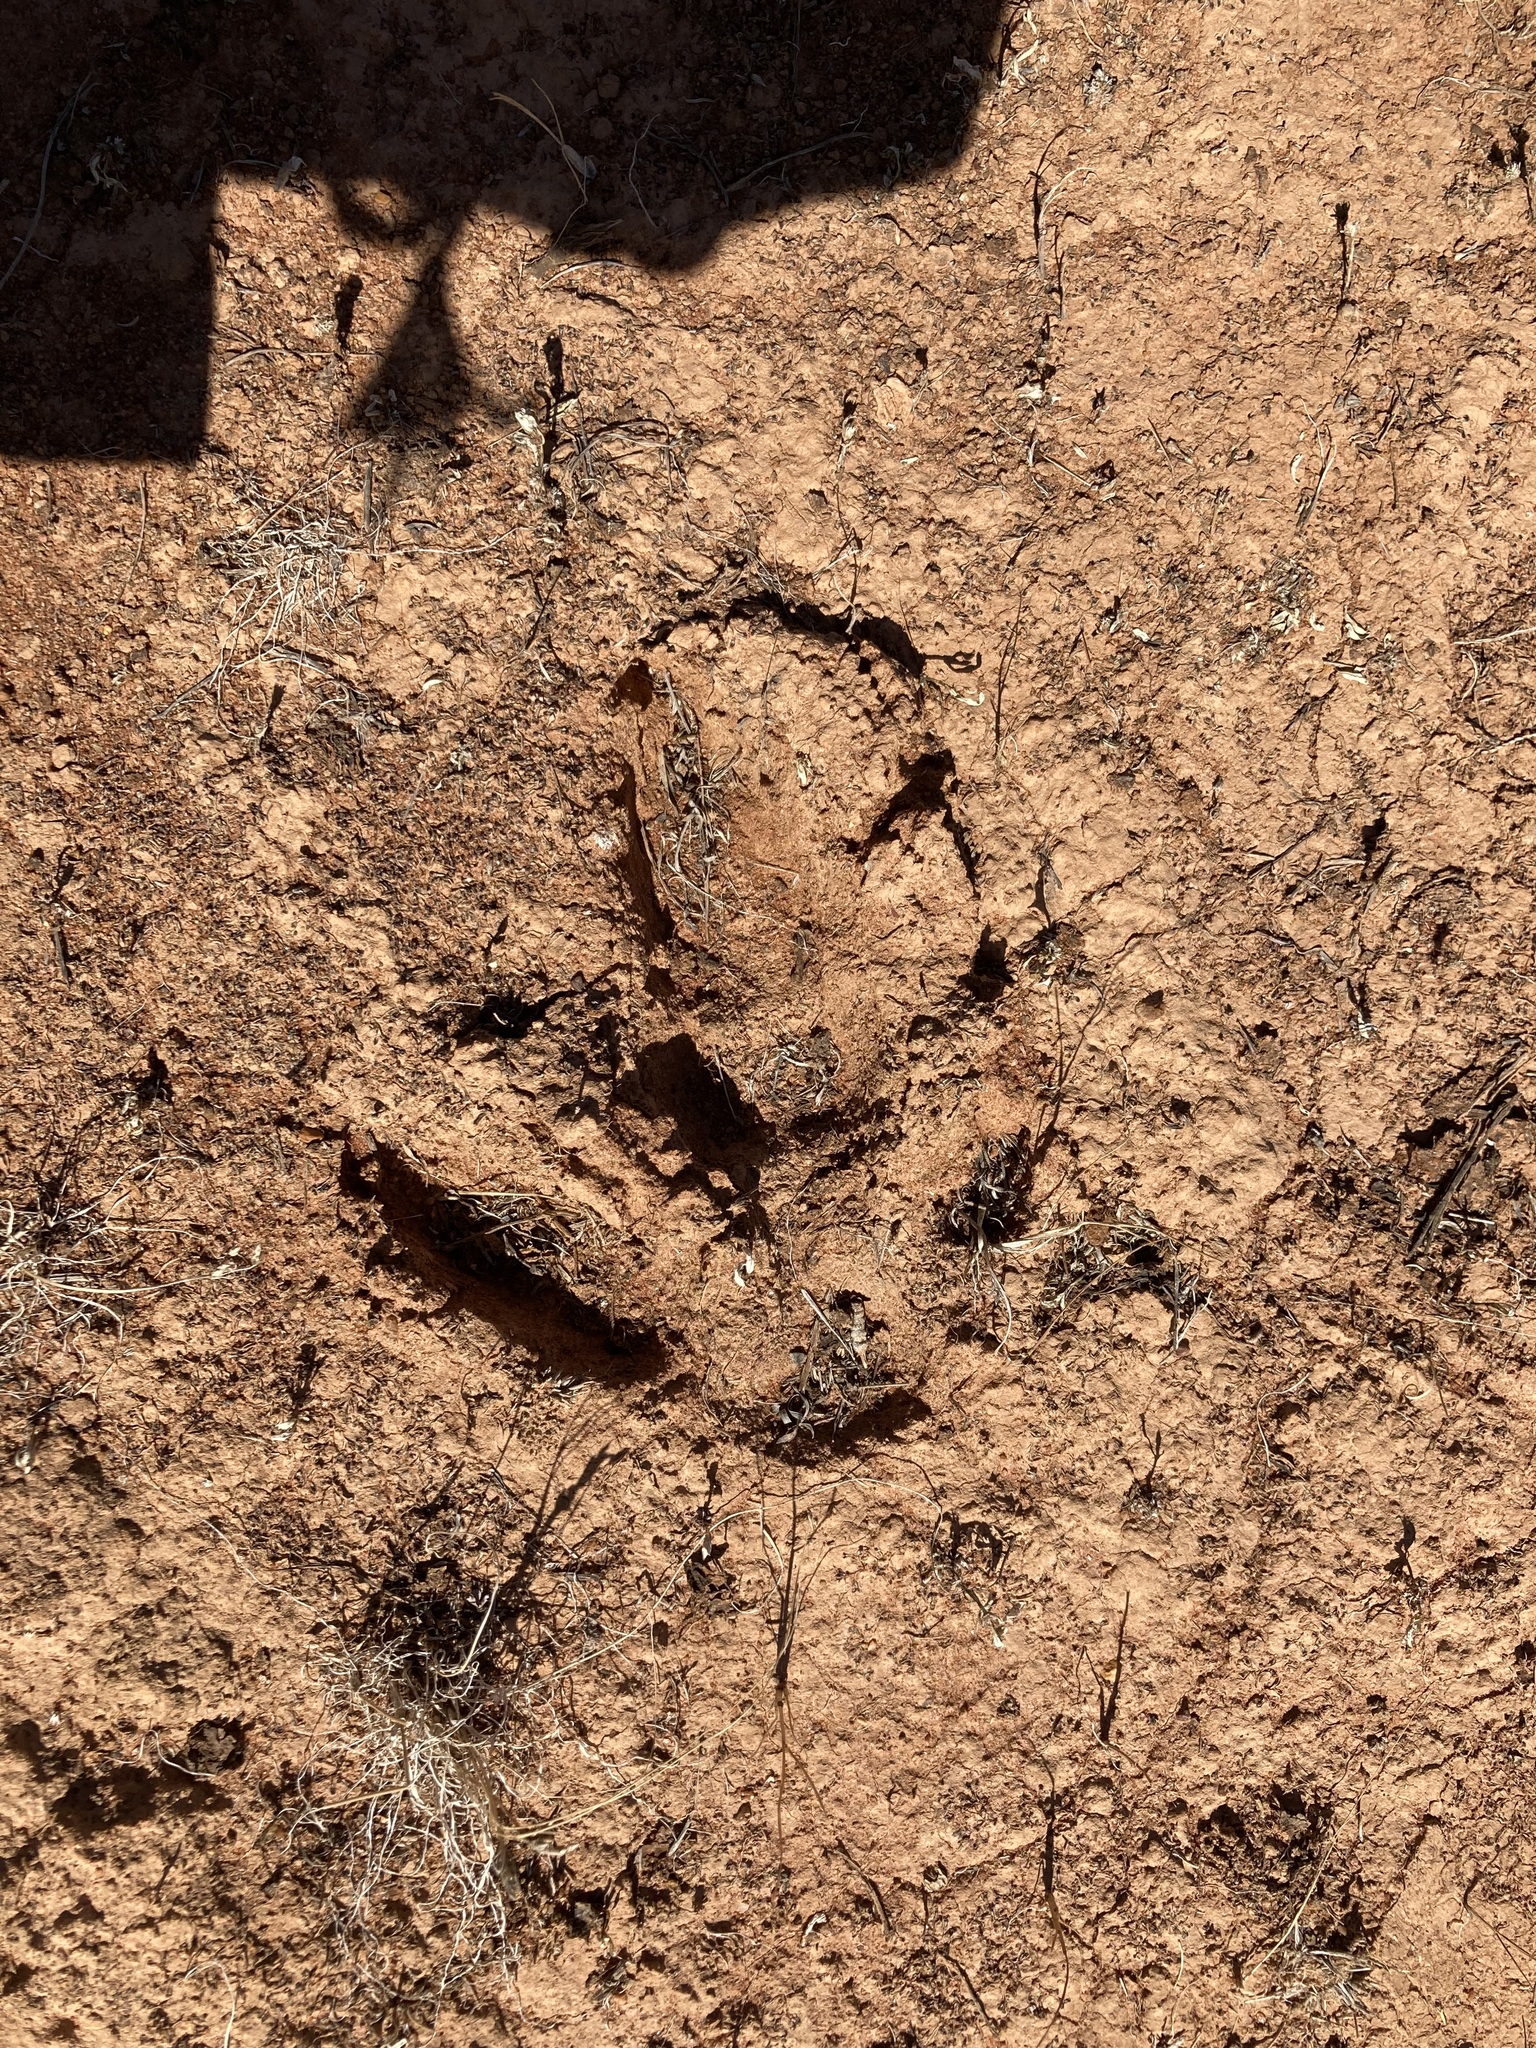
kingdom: Animalia
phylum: Chordata
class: Mammalia
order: Artiodactyla
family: Camelidae
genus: Camelus
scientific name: Camelus dromedarius
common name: One-humped camel
